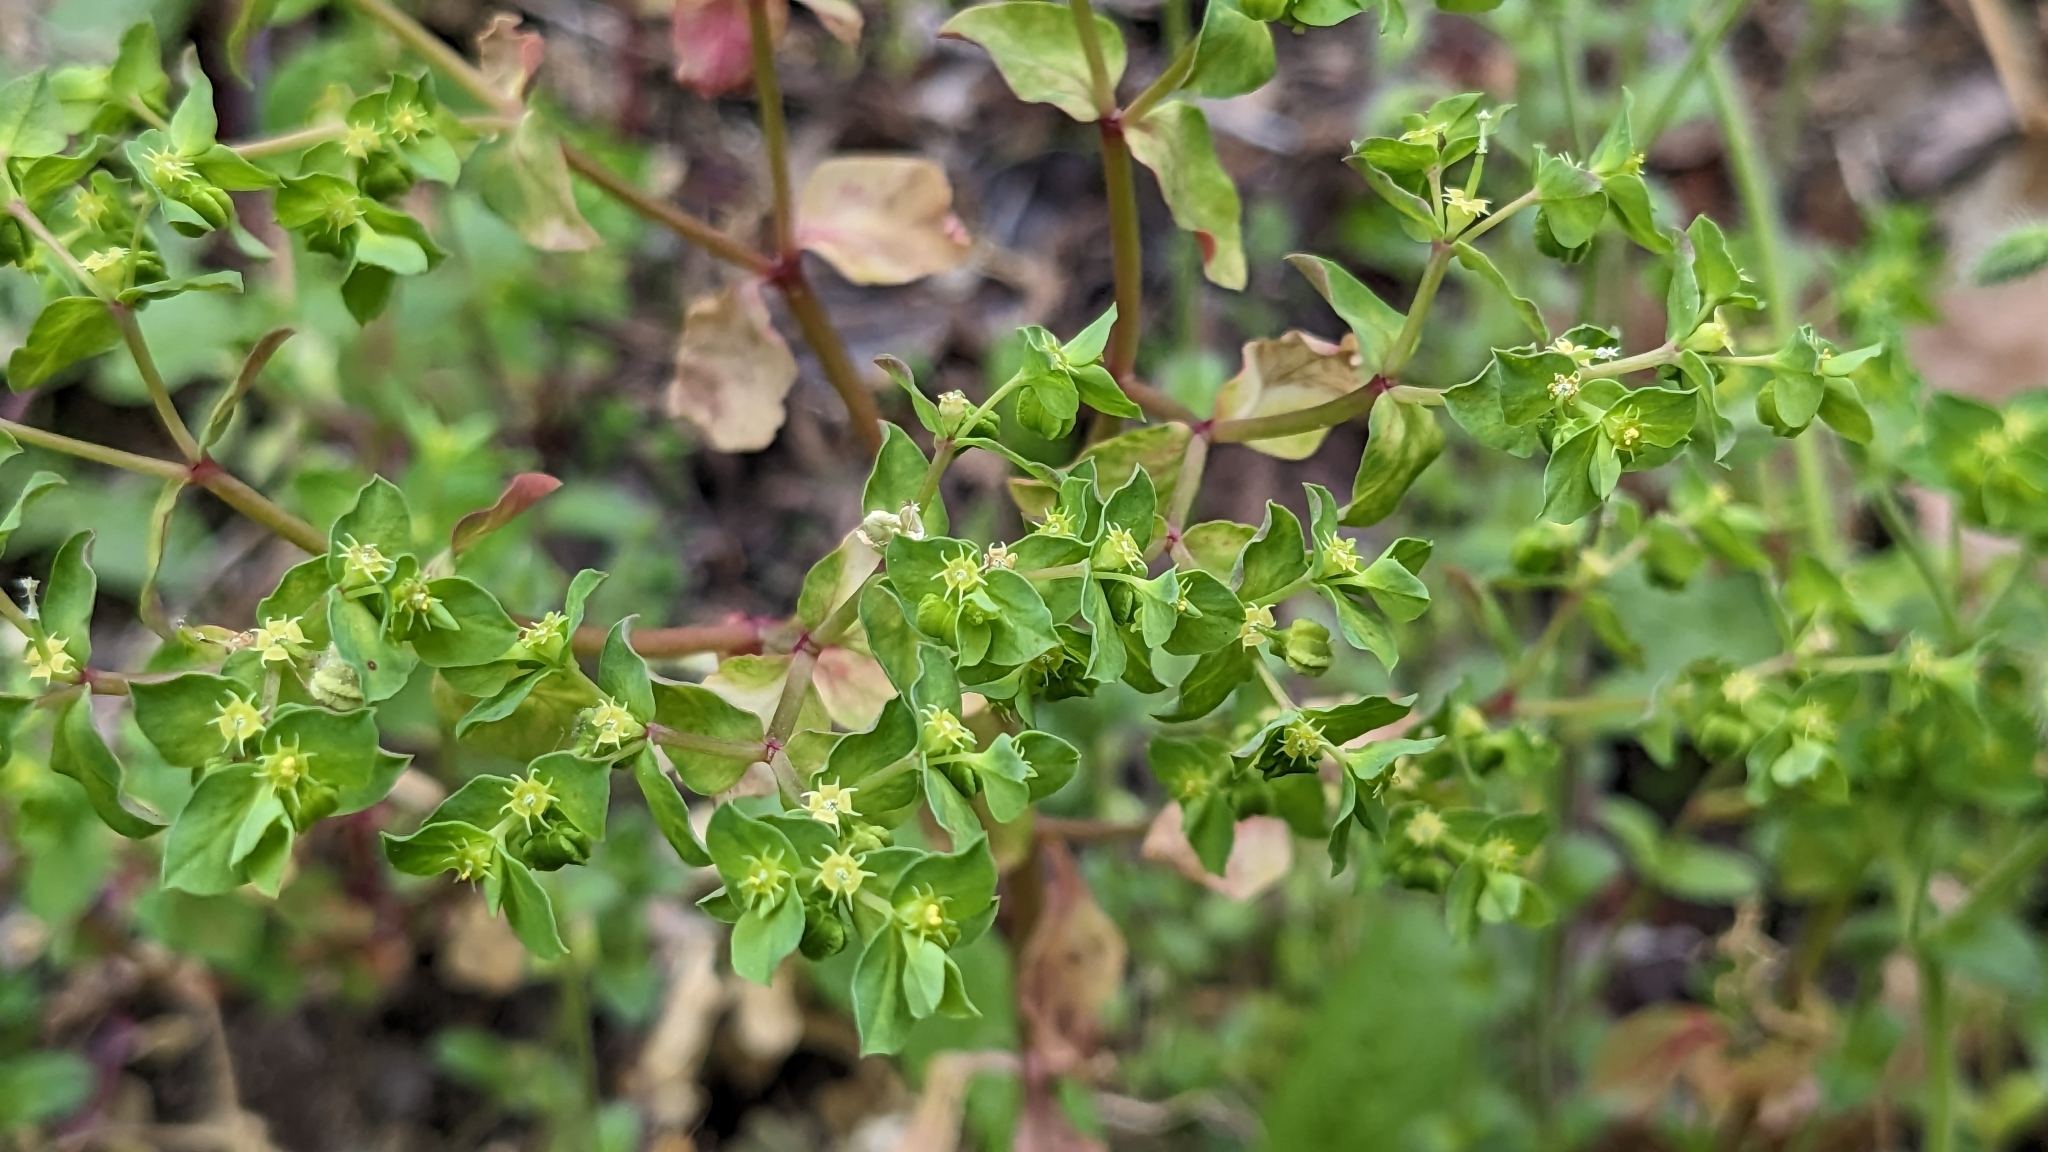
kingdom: Plantae
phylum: Tracheophyta
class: Magnoliopsida
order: Malpighiales
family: Euphorbiaceae
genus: Euphorbia
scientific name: Euphorbia peplus
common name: Petty spurge
